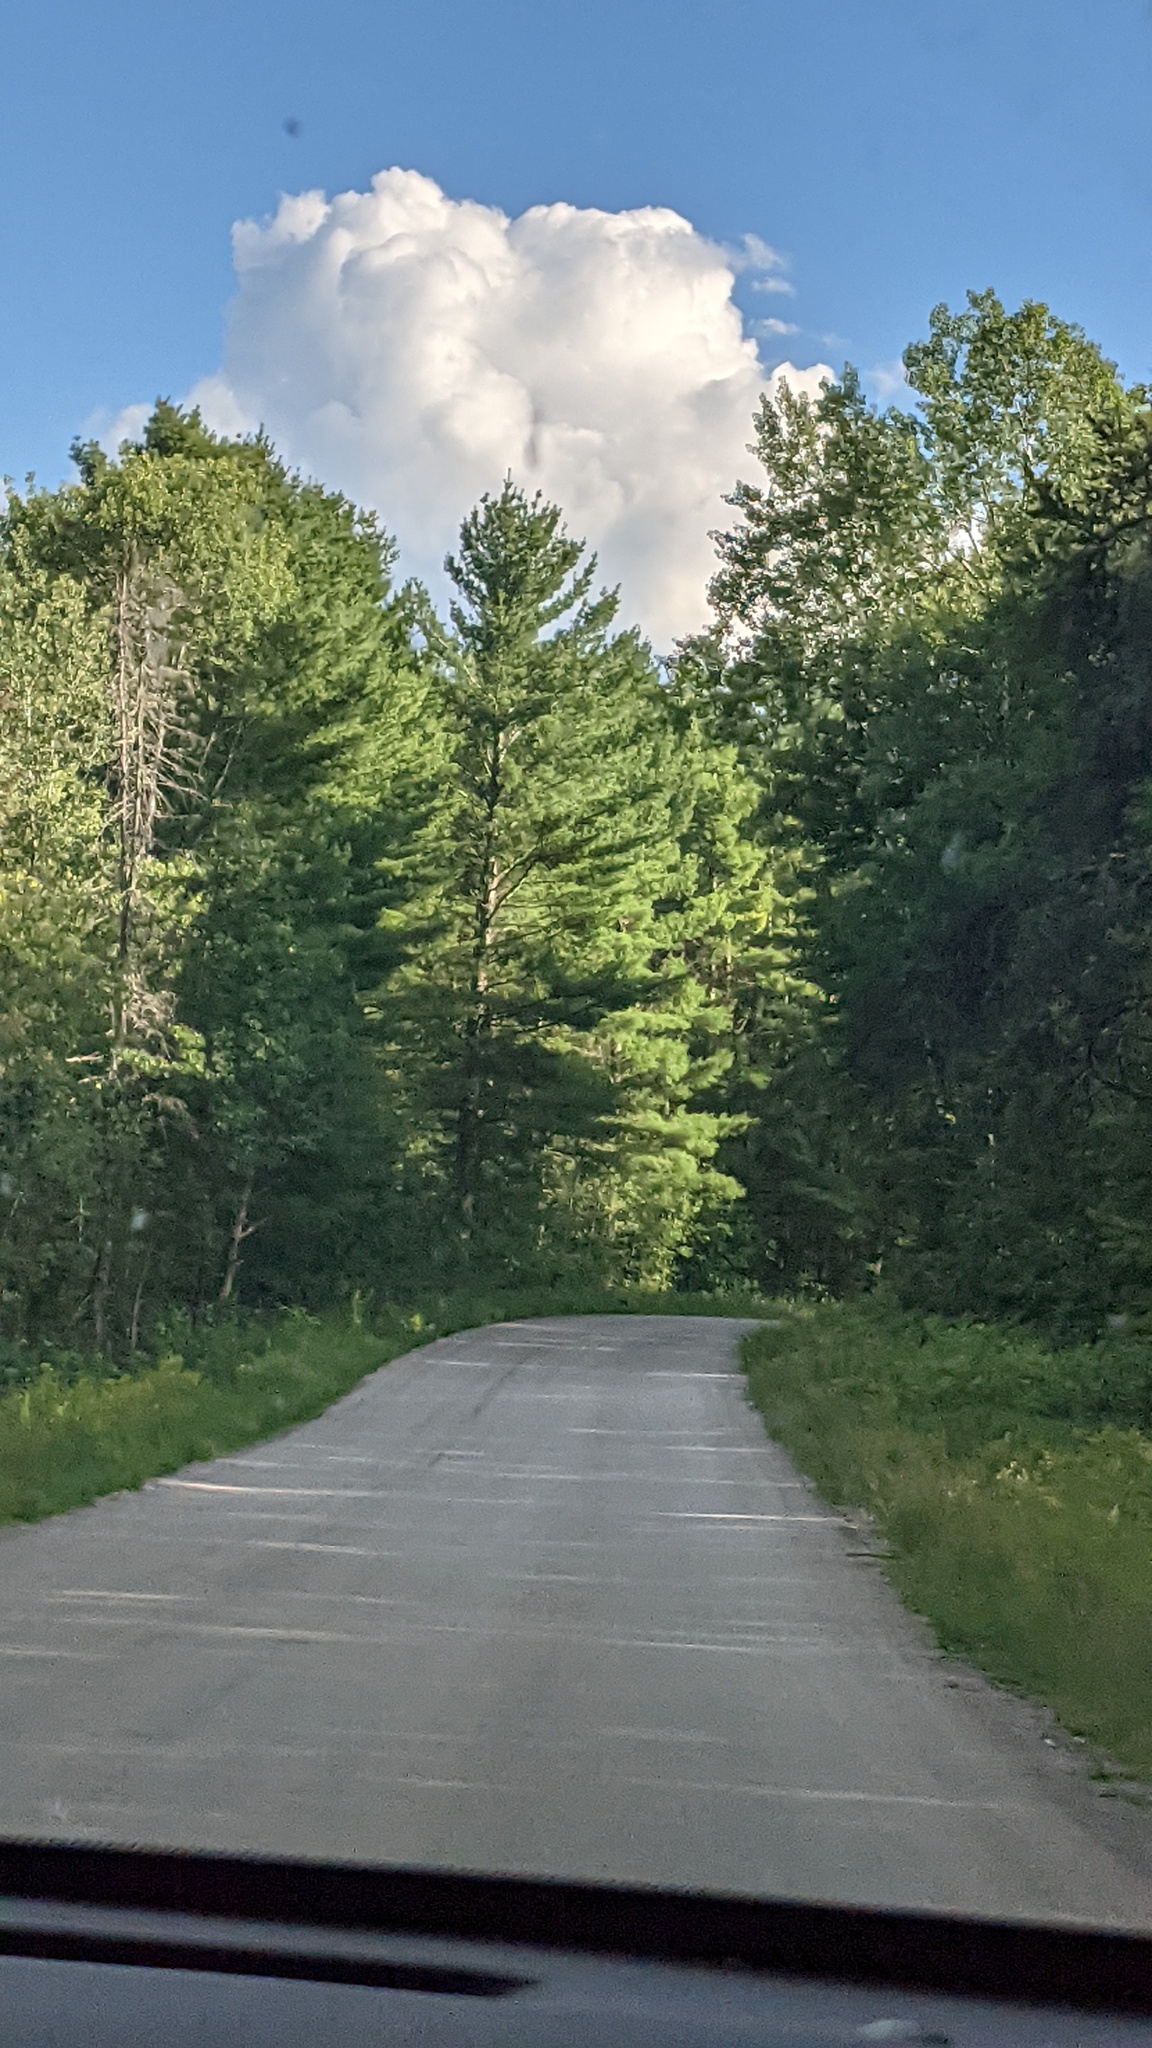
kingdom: Plantae
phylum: Tracheophyta
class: Pinopsida
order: Pinales
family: Pinaceae
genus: Pinus
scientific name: Pinus strobus
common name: Weymouth pine
